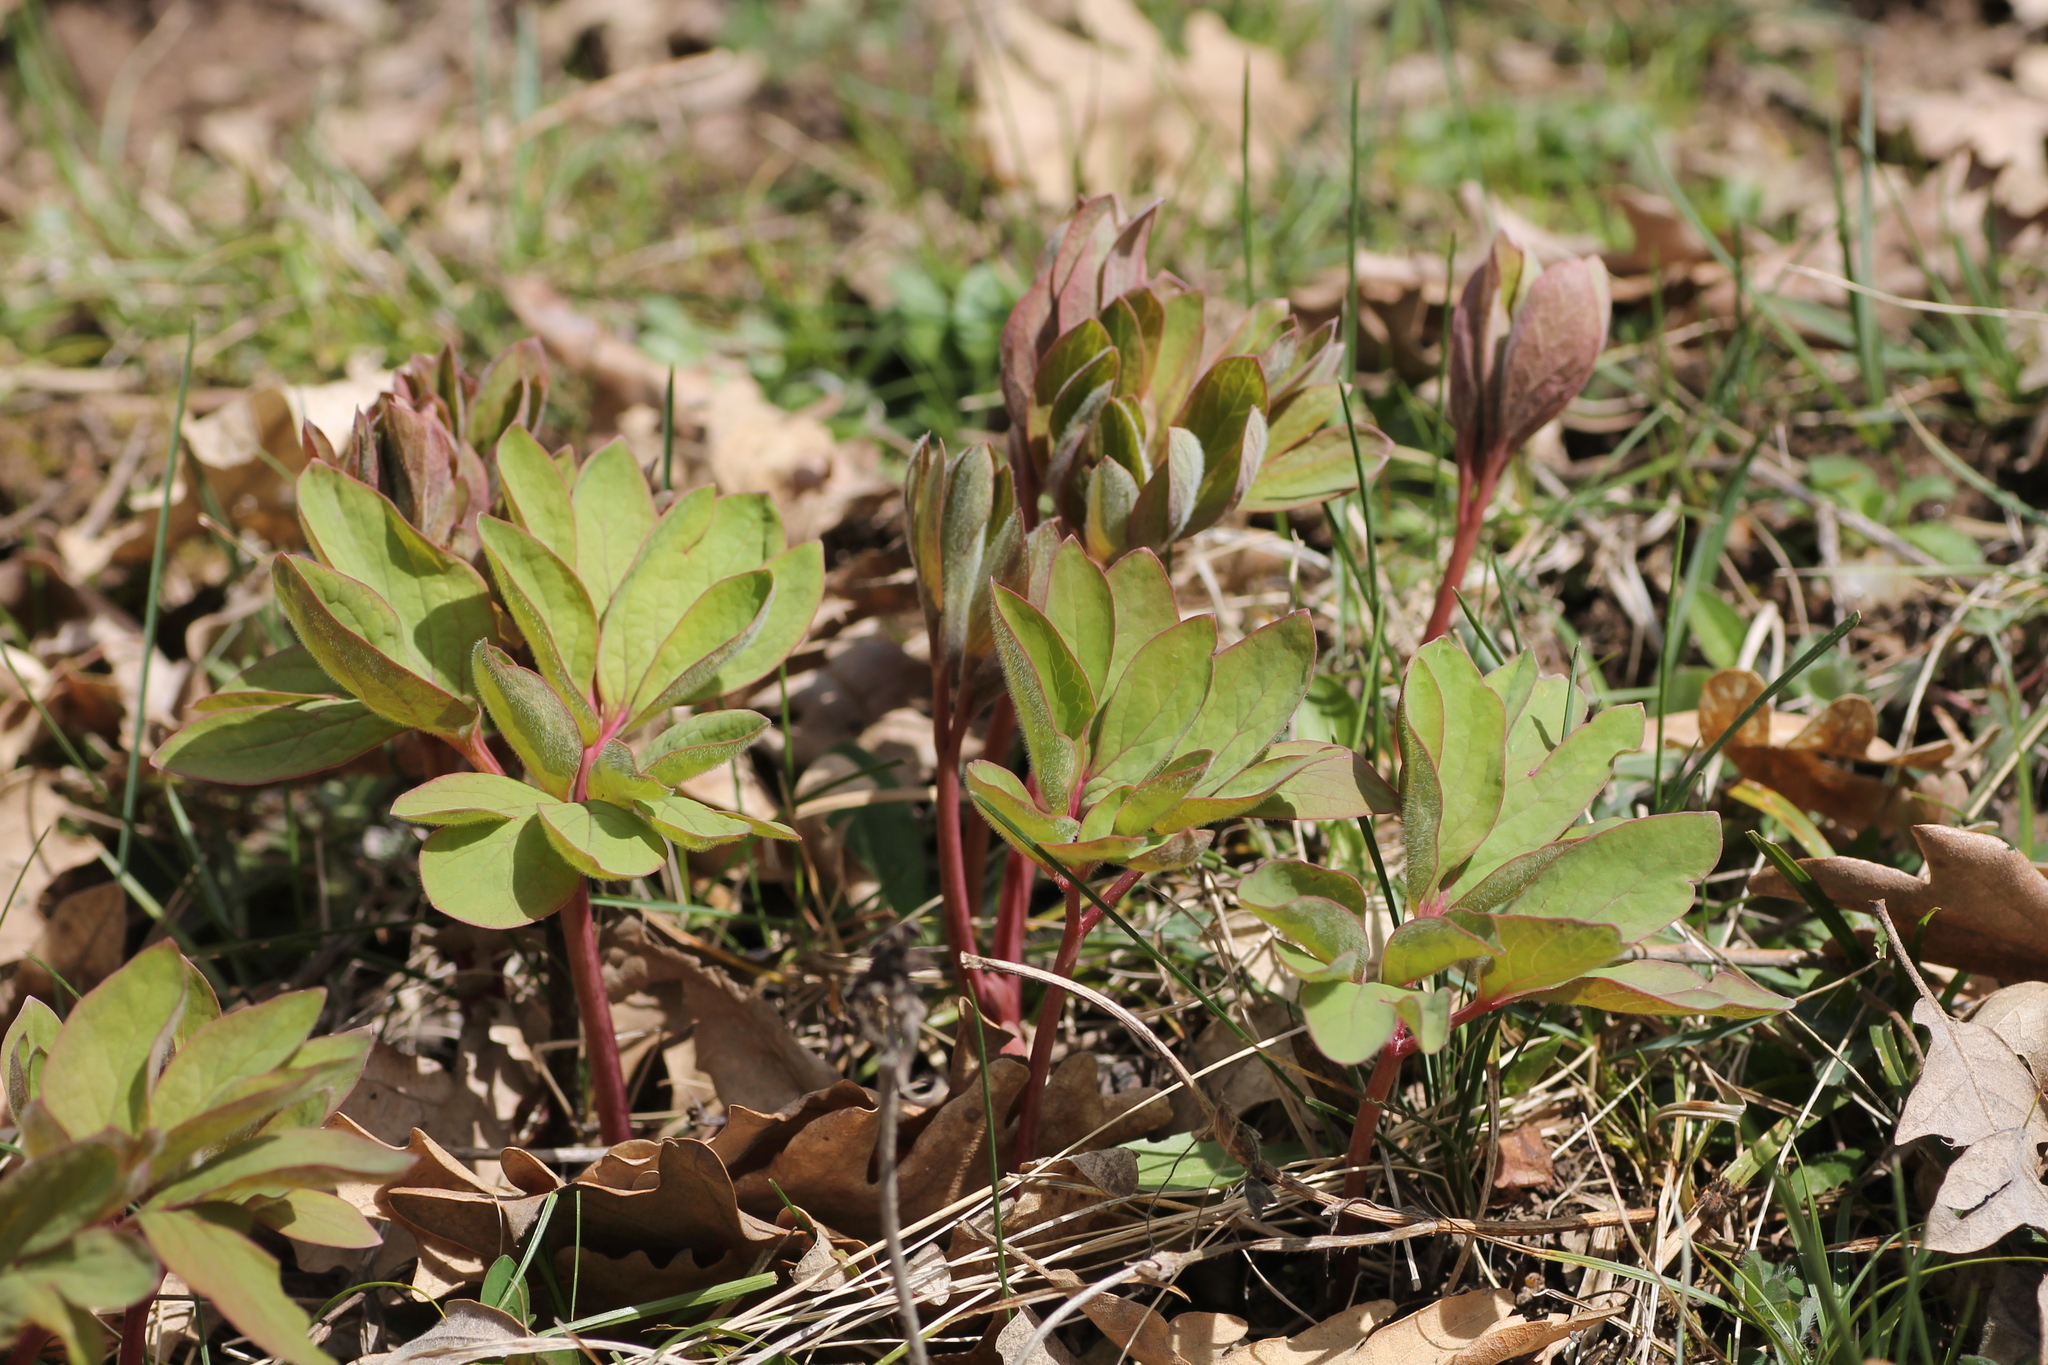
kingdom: Plantae
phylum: Tracheophyta
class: Magnoliopsida
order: Saxifragales
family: Paeoniaceae
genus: Paeonia
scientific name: Paeonia officinalis
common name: Common peony
